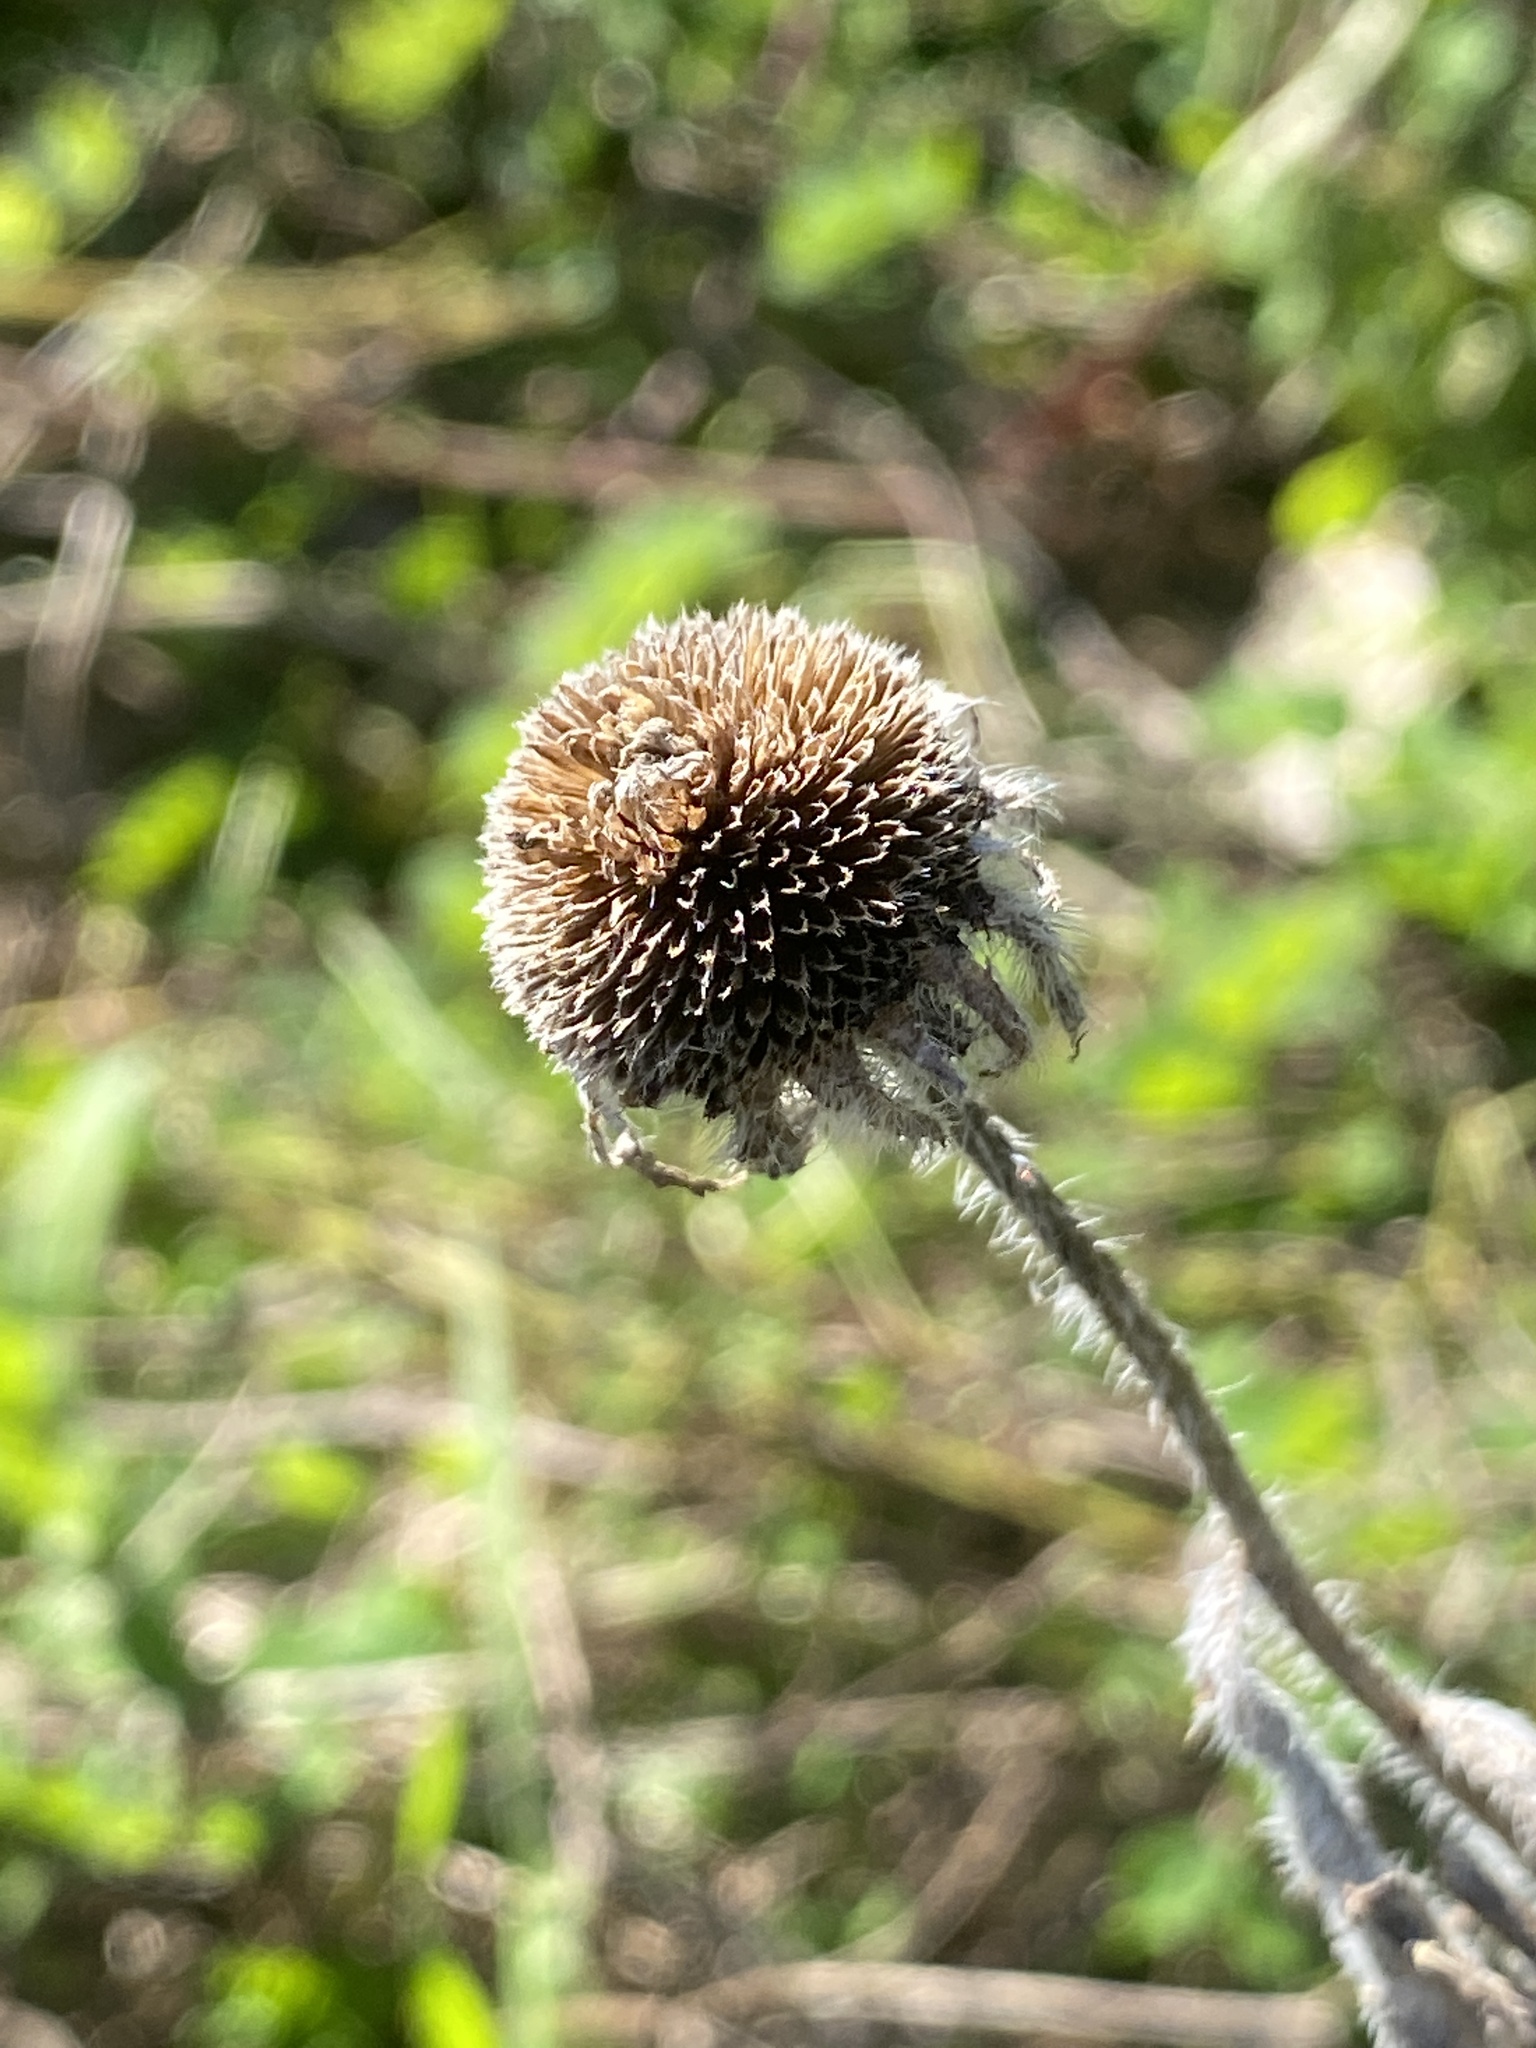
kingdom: Plantae
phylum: Tracheophyta
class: Magnoliopsida
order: Asterales
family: Asteraceae
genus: Rudbeckia
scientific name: Rudbeckia hirta
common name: Black-eyed-susan
